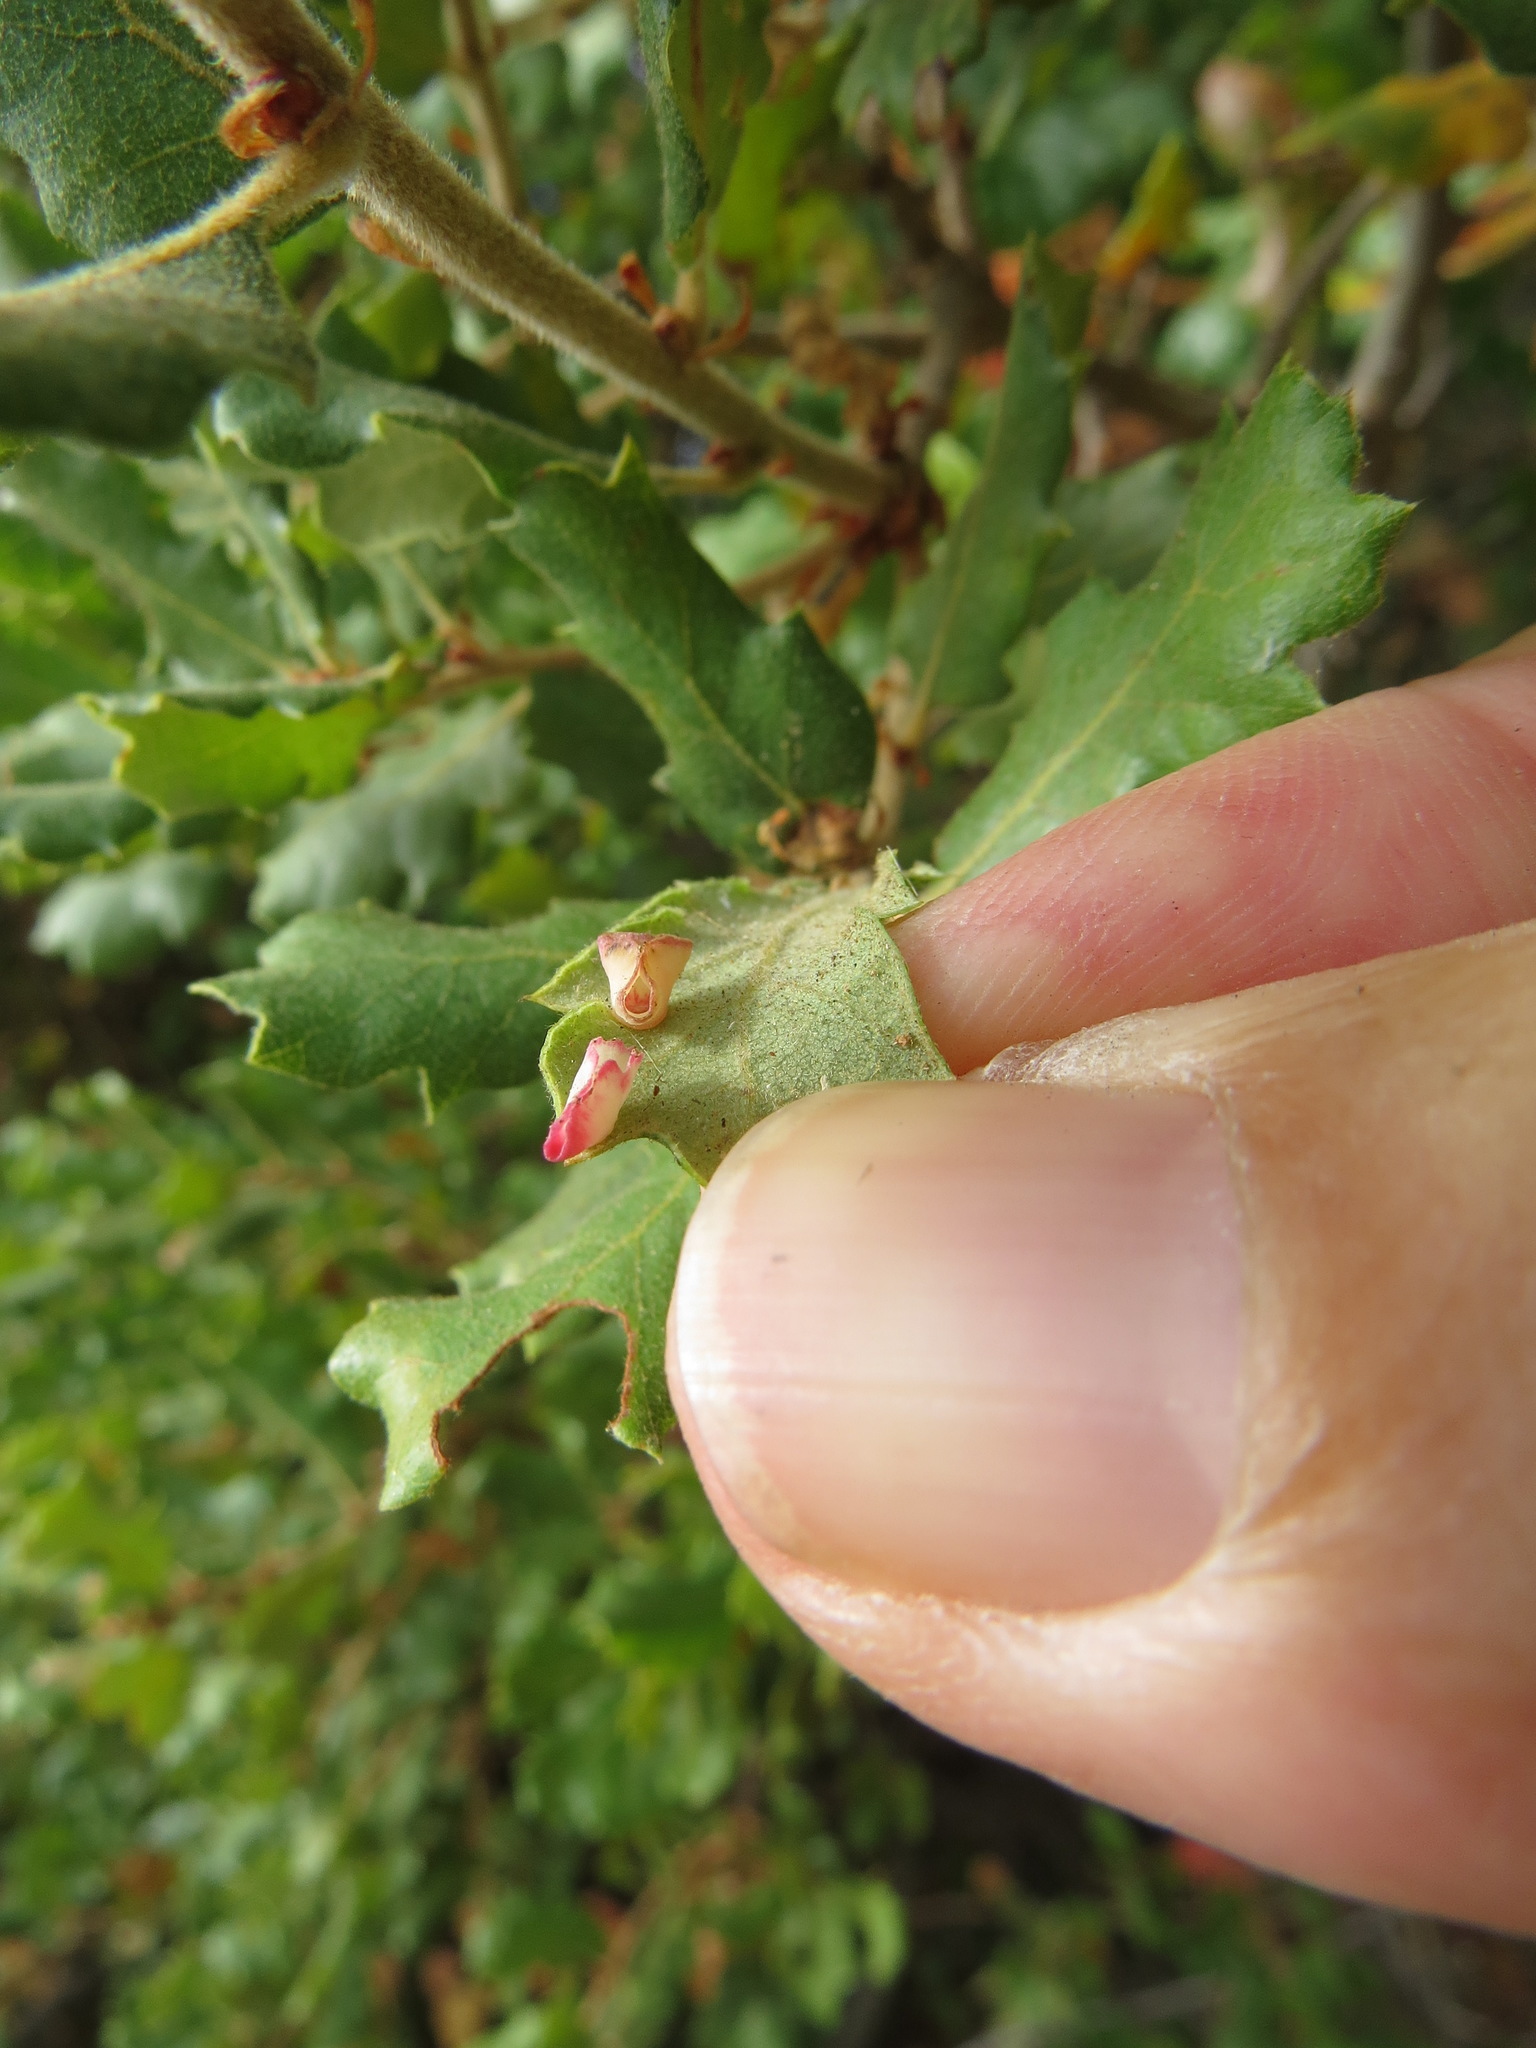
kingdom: Animalia
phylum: Arthropoda
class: Insecta
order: Hymenoptera
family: Cynipidae
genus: Andricus
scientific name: Andricus
